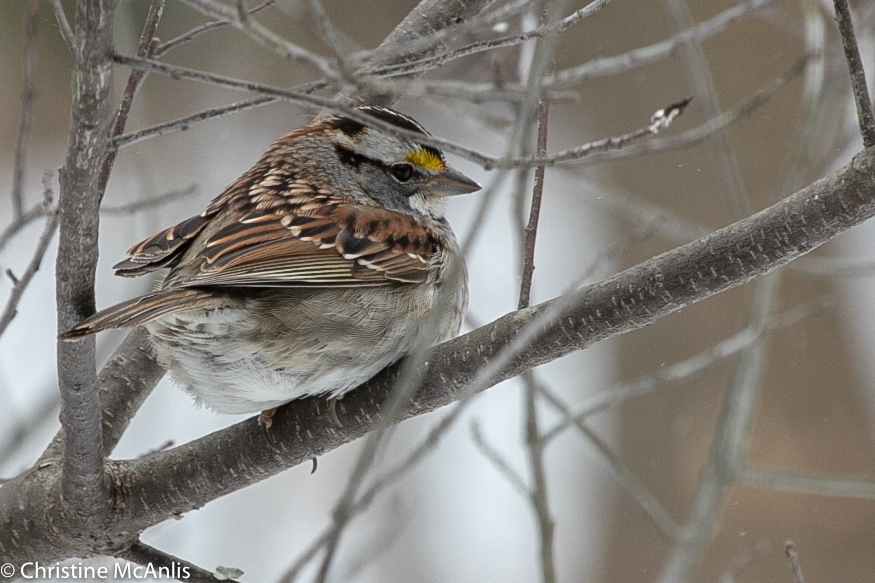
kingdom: Animalia
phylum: Chordata
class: Aves
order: Passeriformes
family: Passerellidae
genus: Zonotrichia
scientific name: Zonotrichia albicollis
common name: White-throated sparrow
